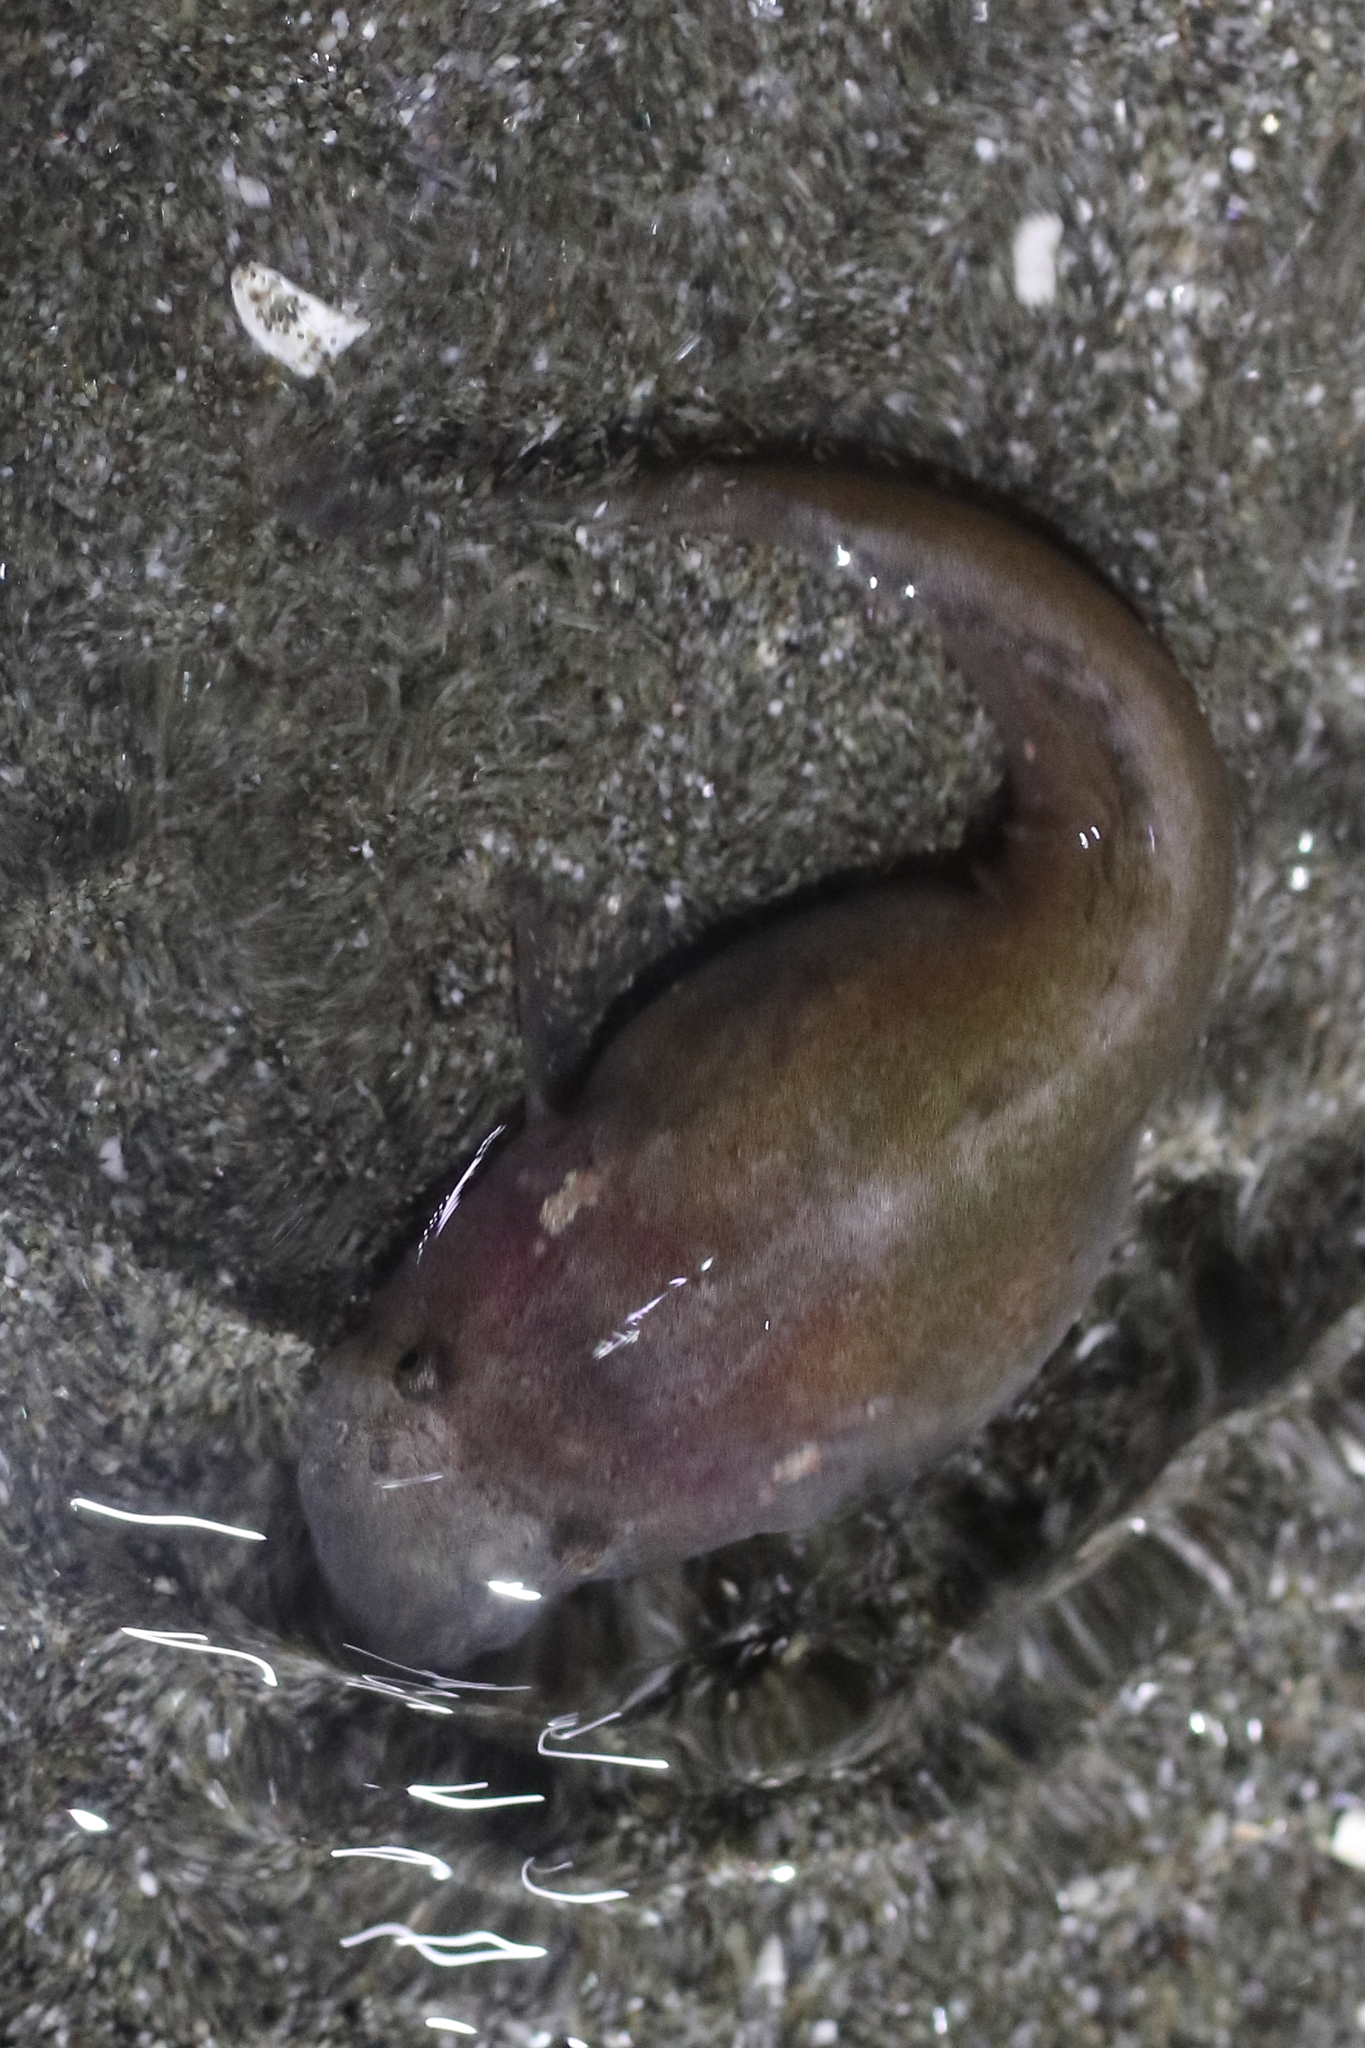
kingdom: Animalia
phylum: Chordata
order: Scorpaeniformes
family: Liparidae
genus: Liparis
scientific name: Liparis florae
